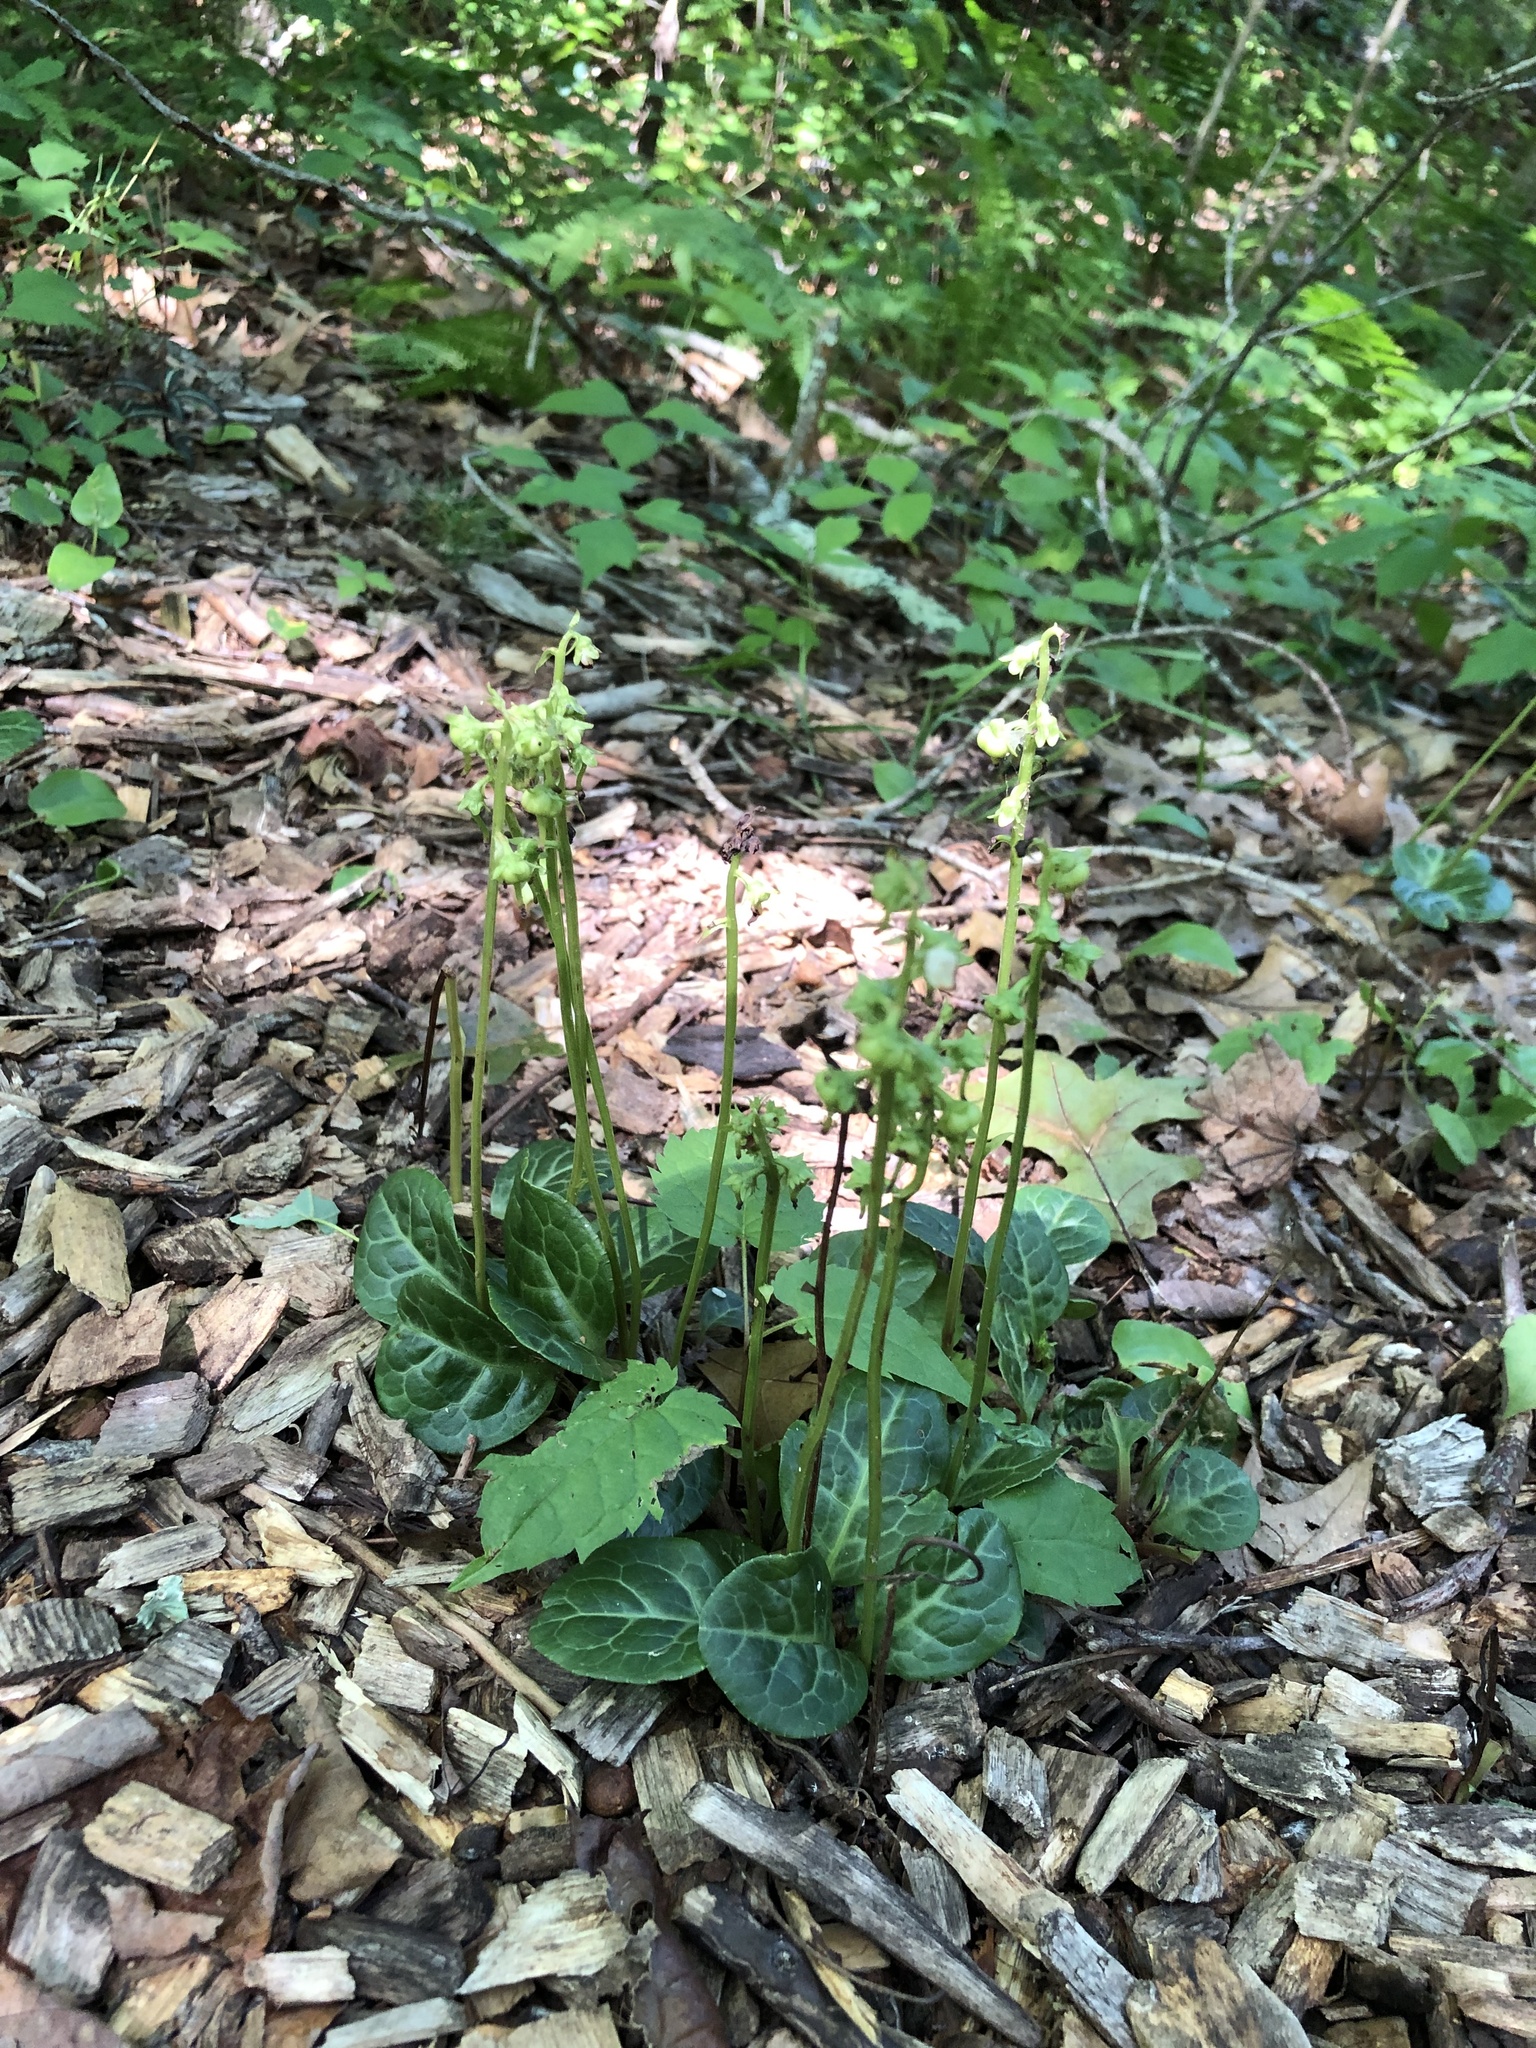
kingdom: Plantae
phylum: Tracheophyta
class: Magnoliopsida
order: Ericales
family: Ericaceae
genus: Pyrola
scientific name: Pyrola americana
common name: American wintergreen
